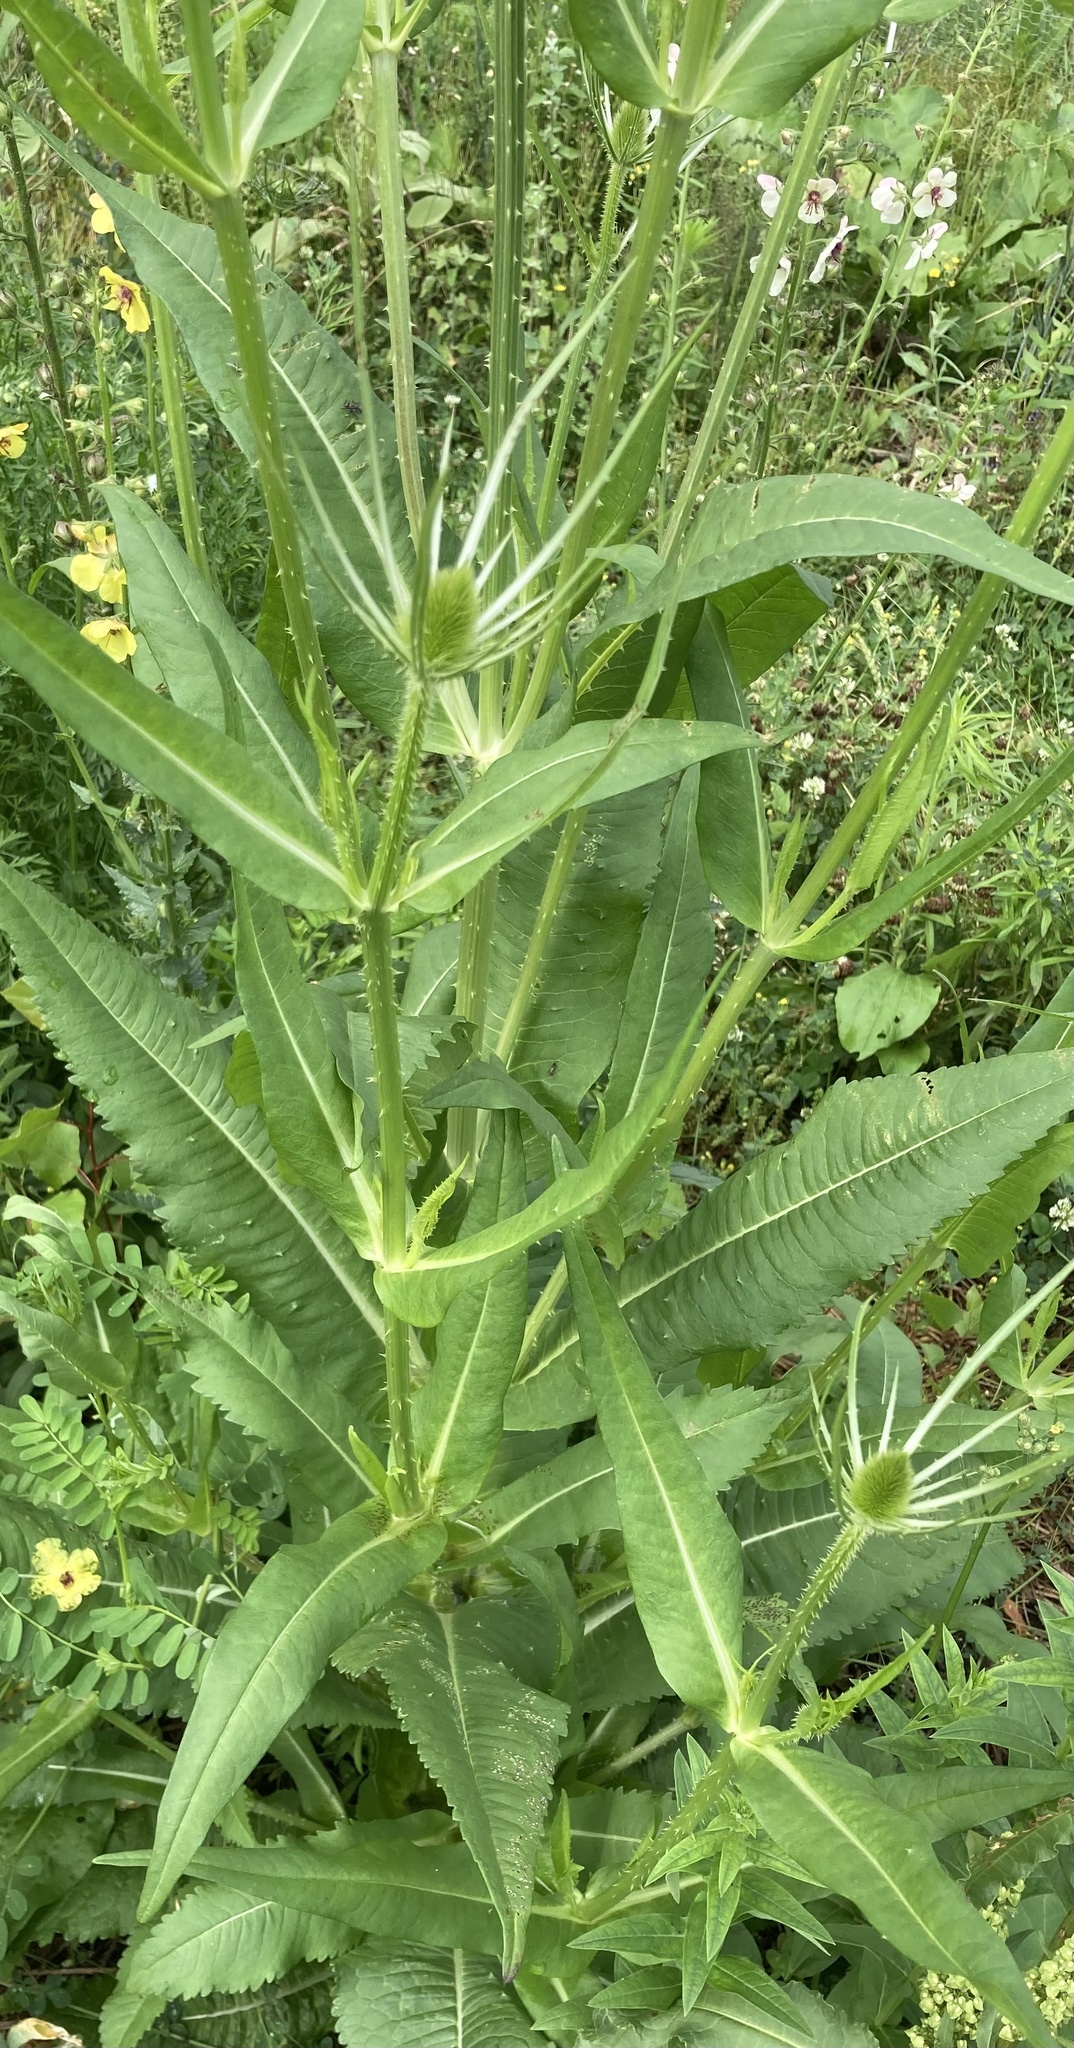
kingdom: Plantae
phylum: Tracheophyta
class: Magnoliopsida
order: Dipsacales
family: Caprifoliaceae
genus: Dipsacus
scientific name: Dipsacus fullonum
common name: Teasel
